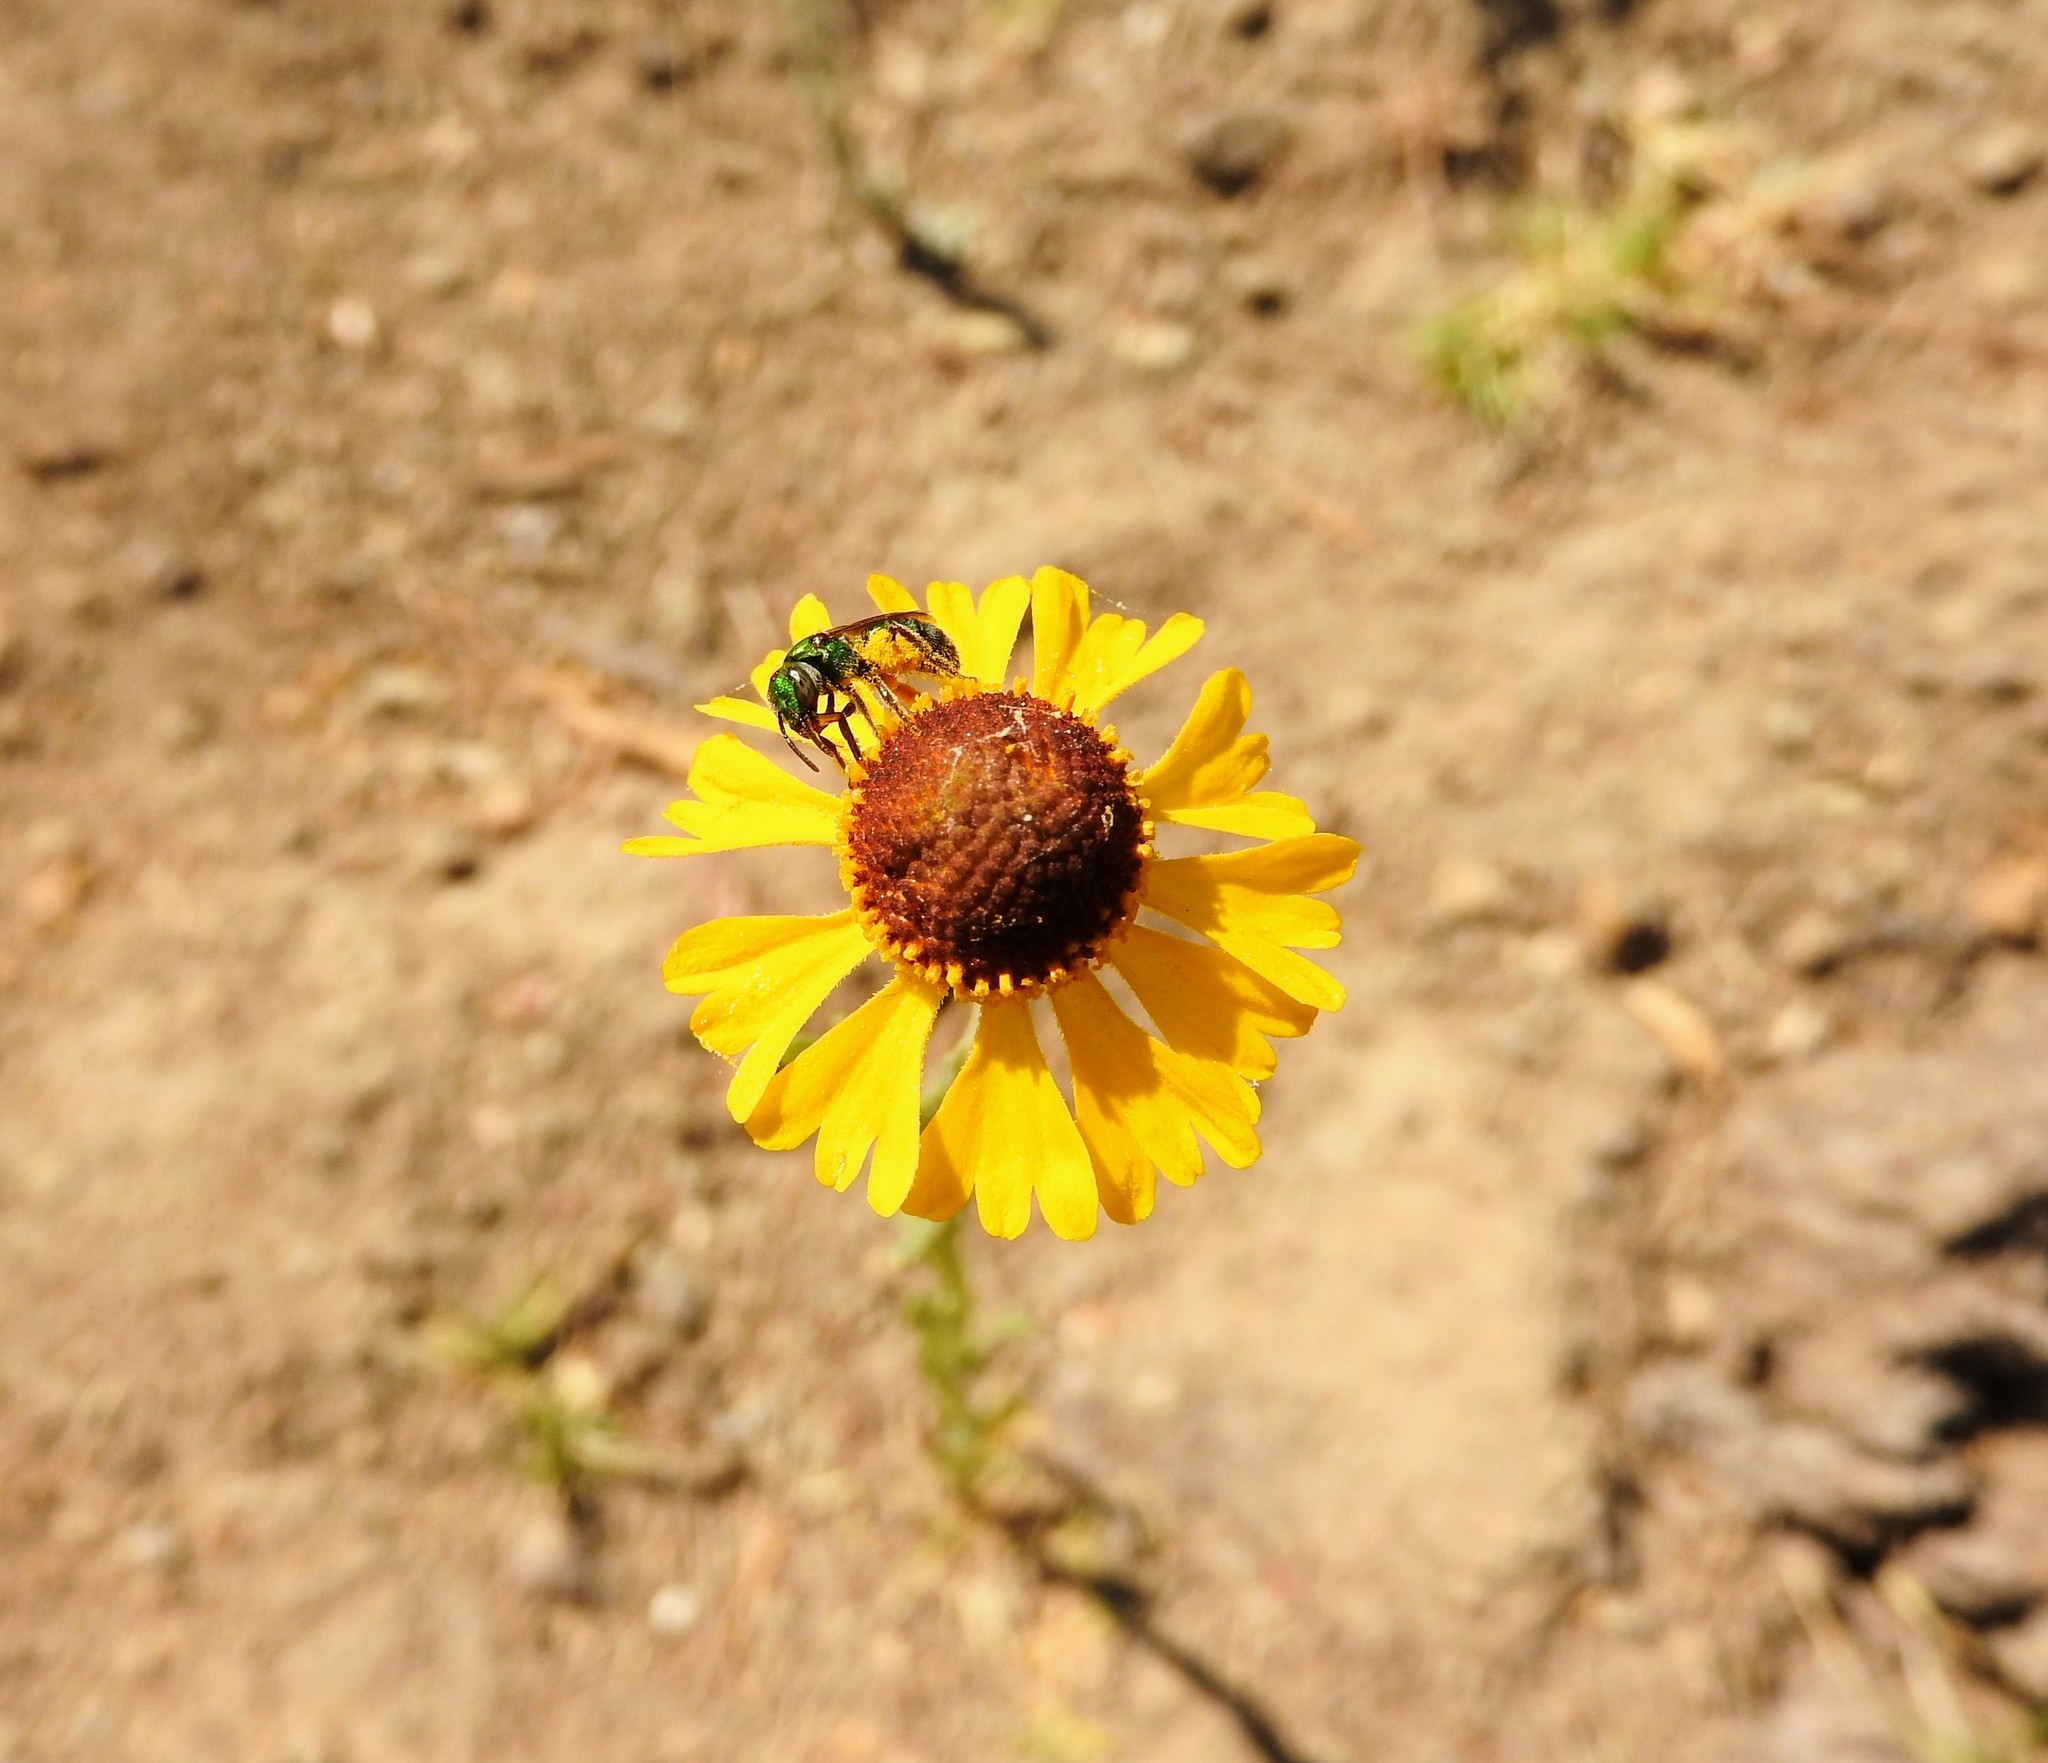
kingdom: Plantae
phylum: Tracheophyta
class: Magnoliopsida
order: Asterales
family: Asteraceae
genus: Helenium
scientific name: Helenium mexicanum
